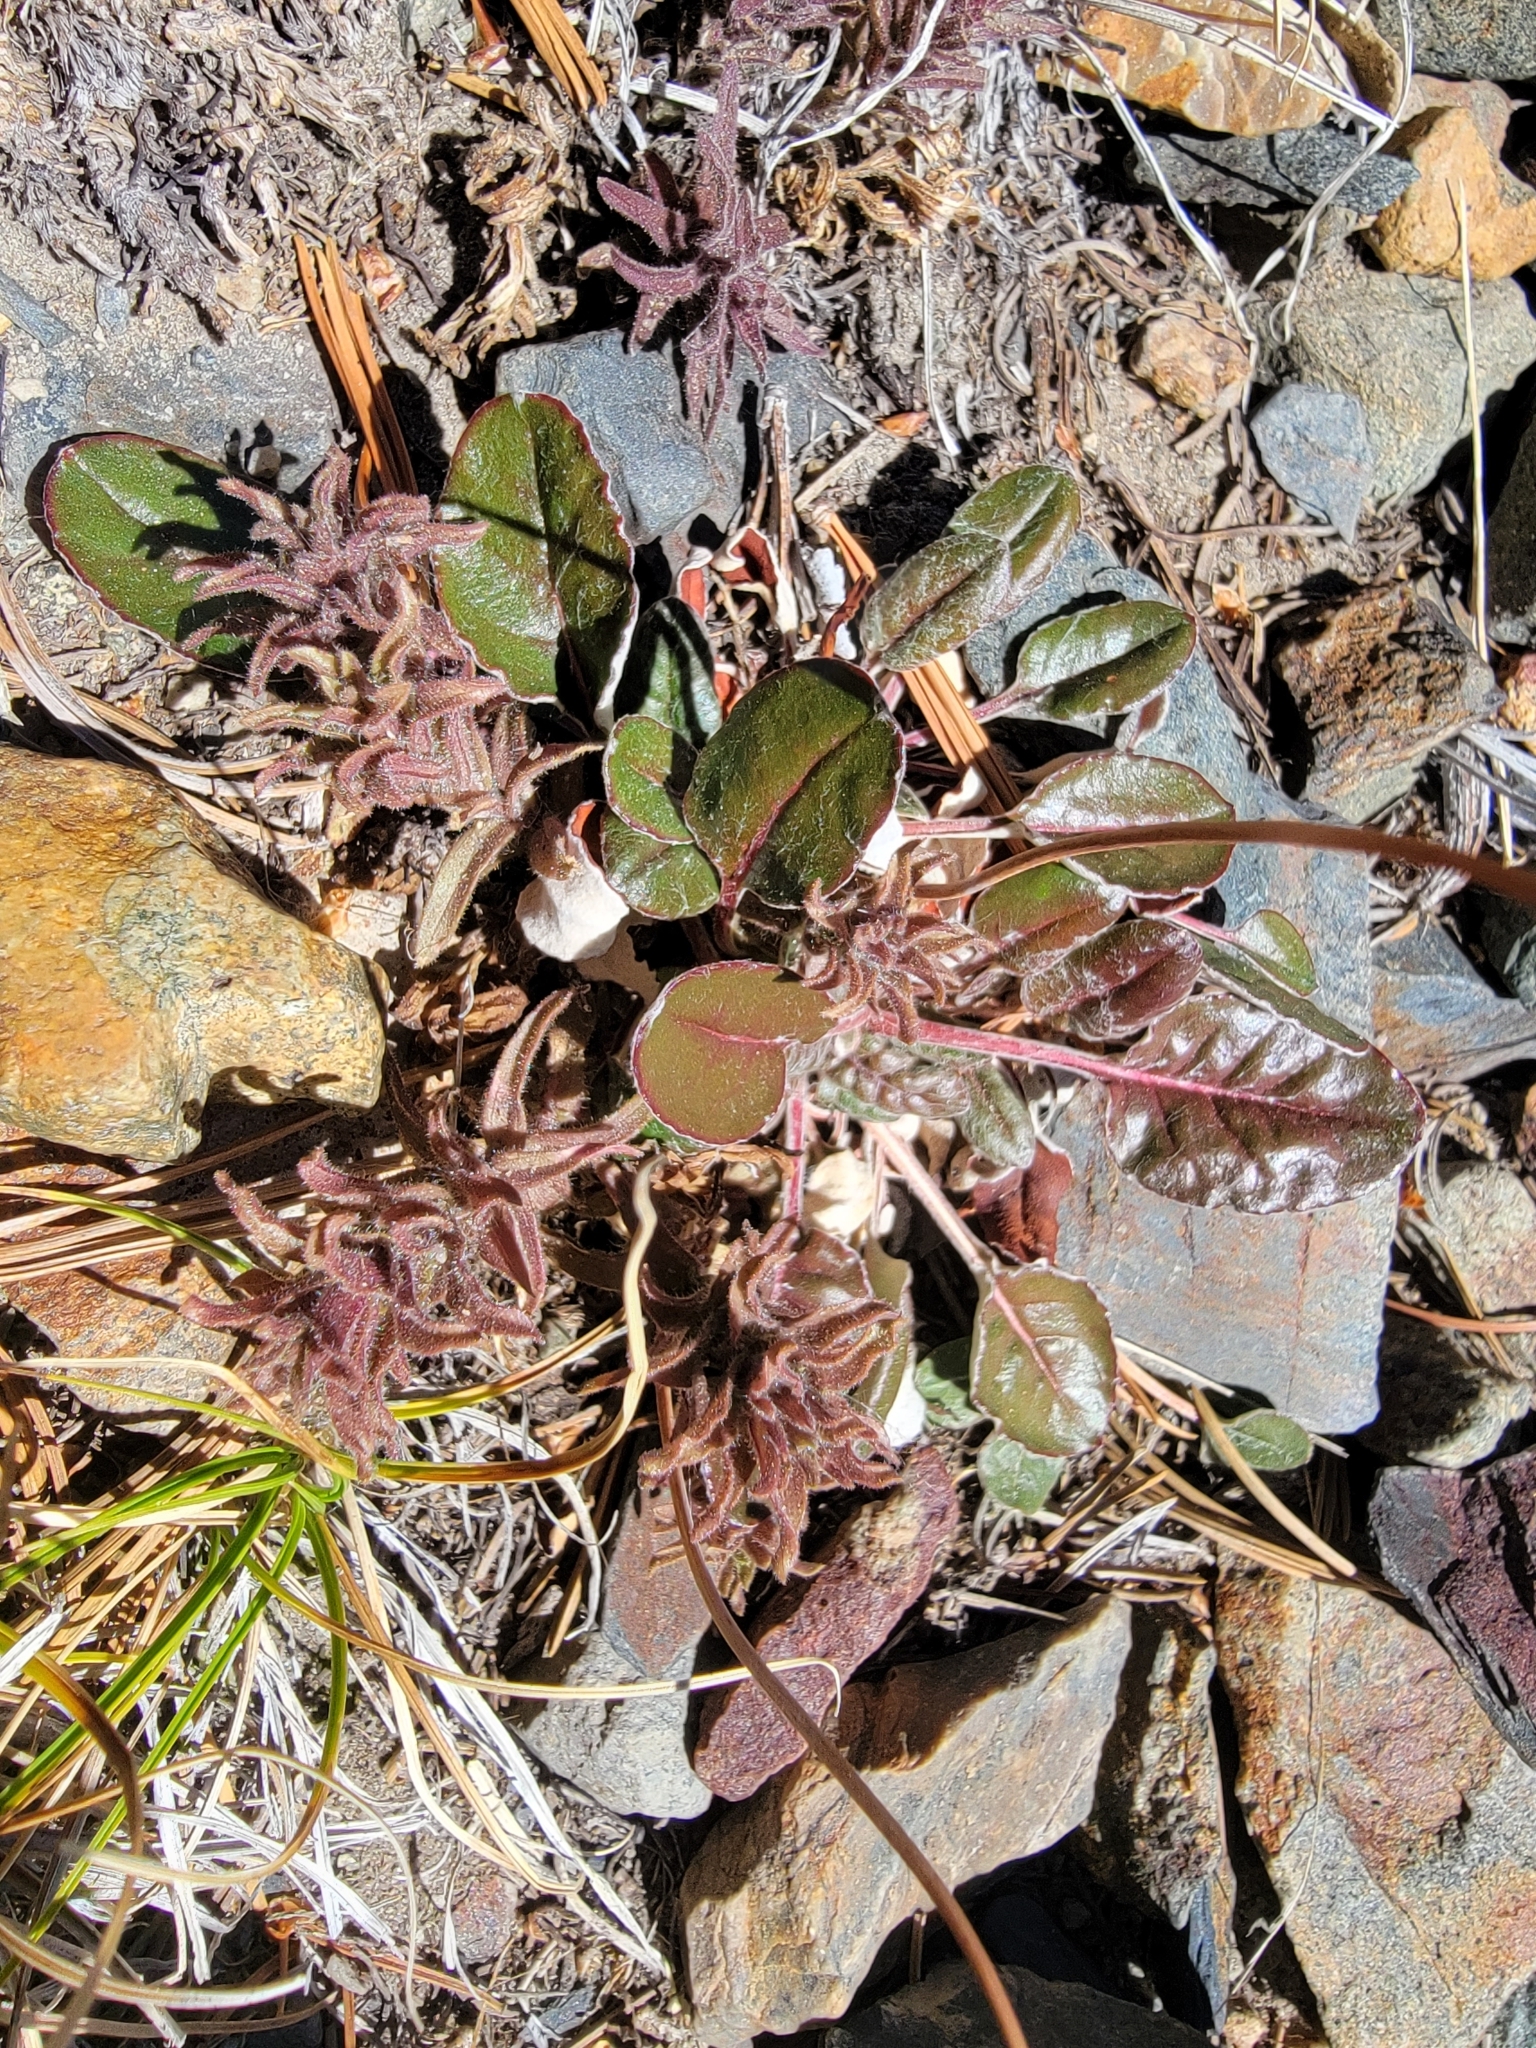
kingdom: Plantae
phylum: Tracheophyta
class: Magnoliopsida
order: Caryophyllales
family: Polygonaceae
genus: Eriogonum
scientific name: Eriogonum nudum
